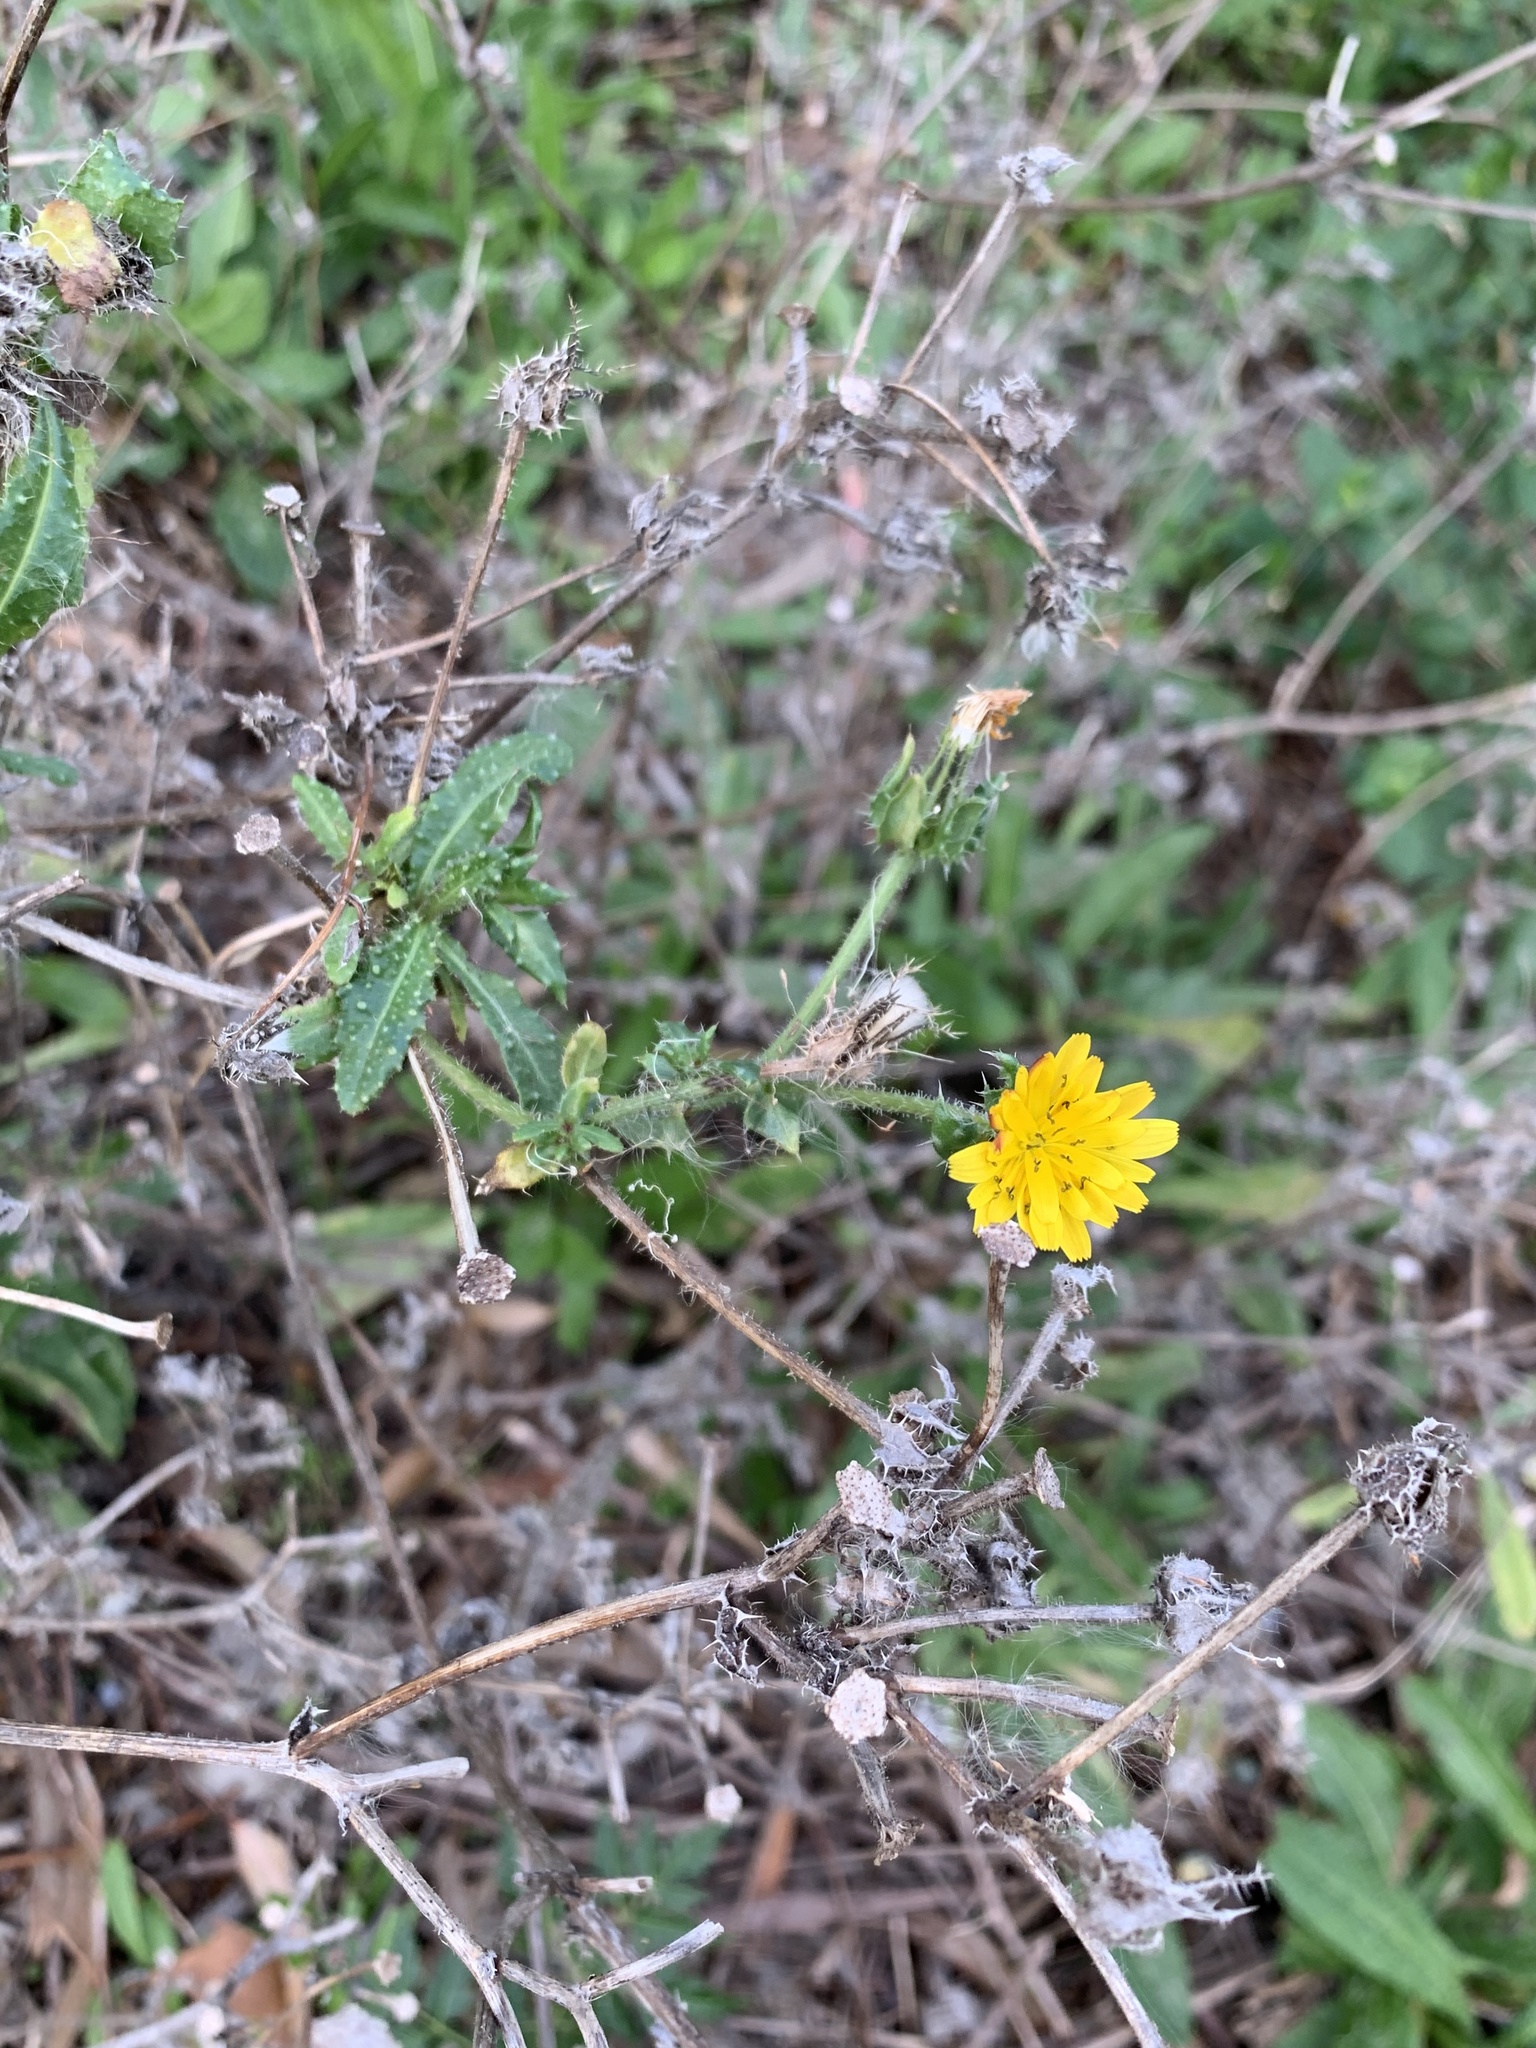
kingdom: Plantae
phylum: Tracheophyta
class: Magnoliopsida
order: Asterales
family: Asteraceae
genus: Helminthotheca
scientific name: Helminthotheca echioides
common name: Ox-tongue
